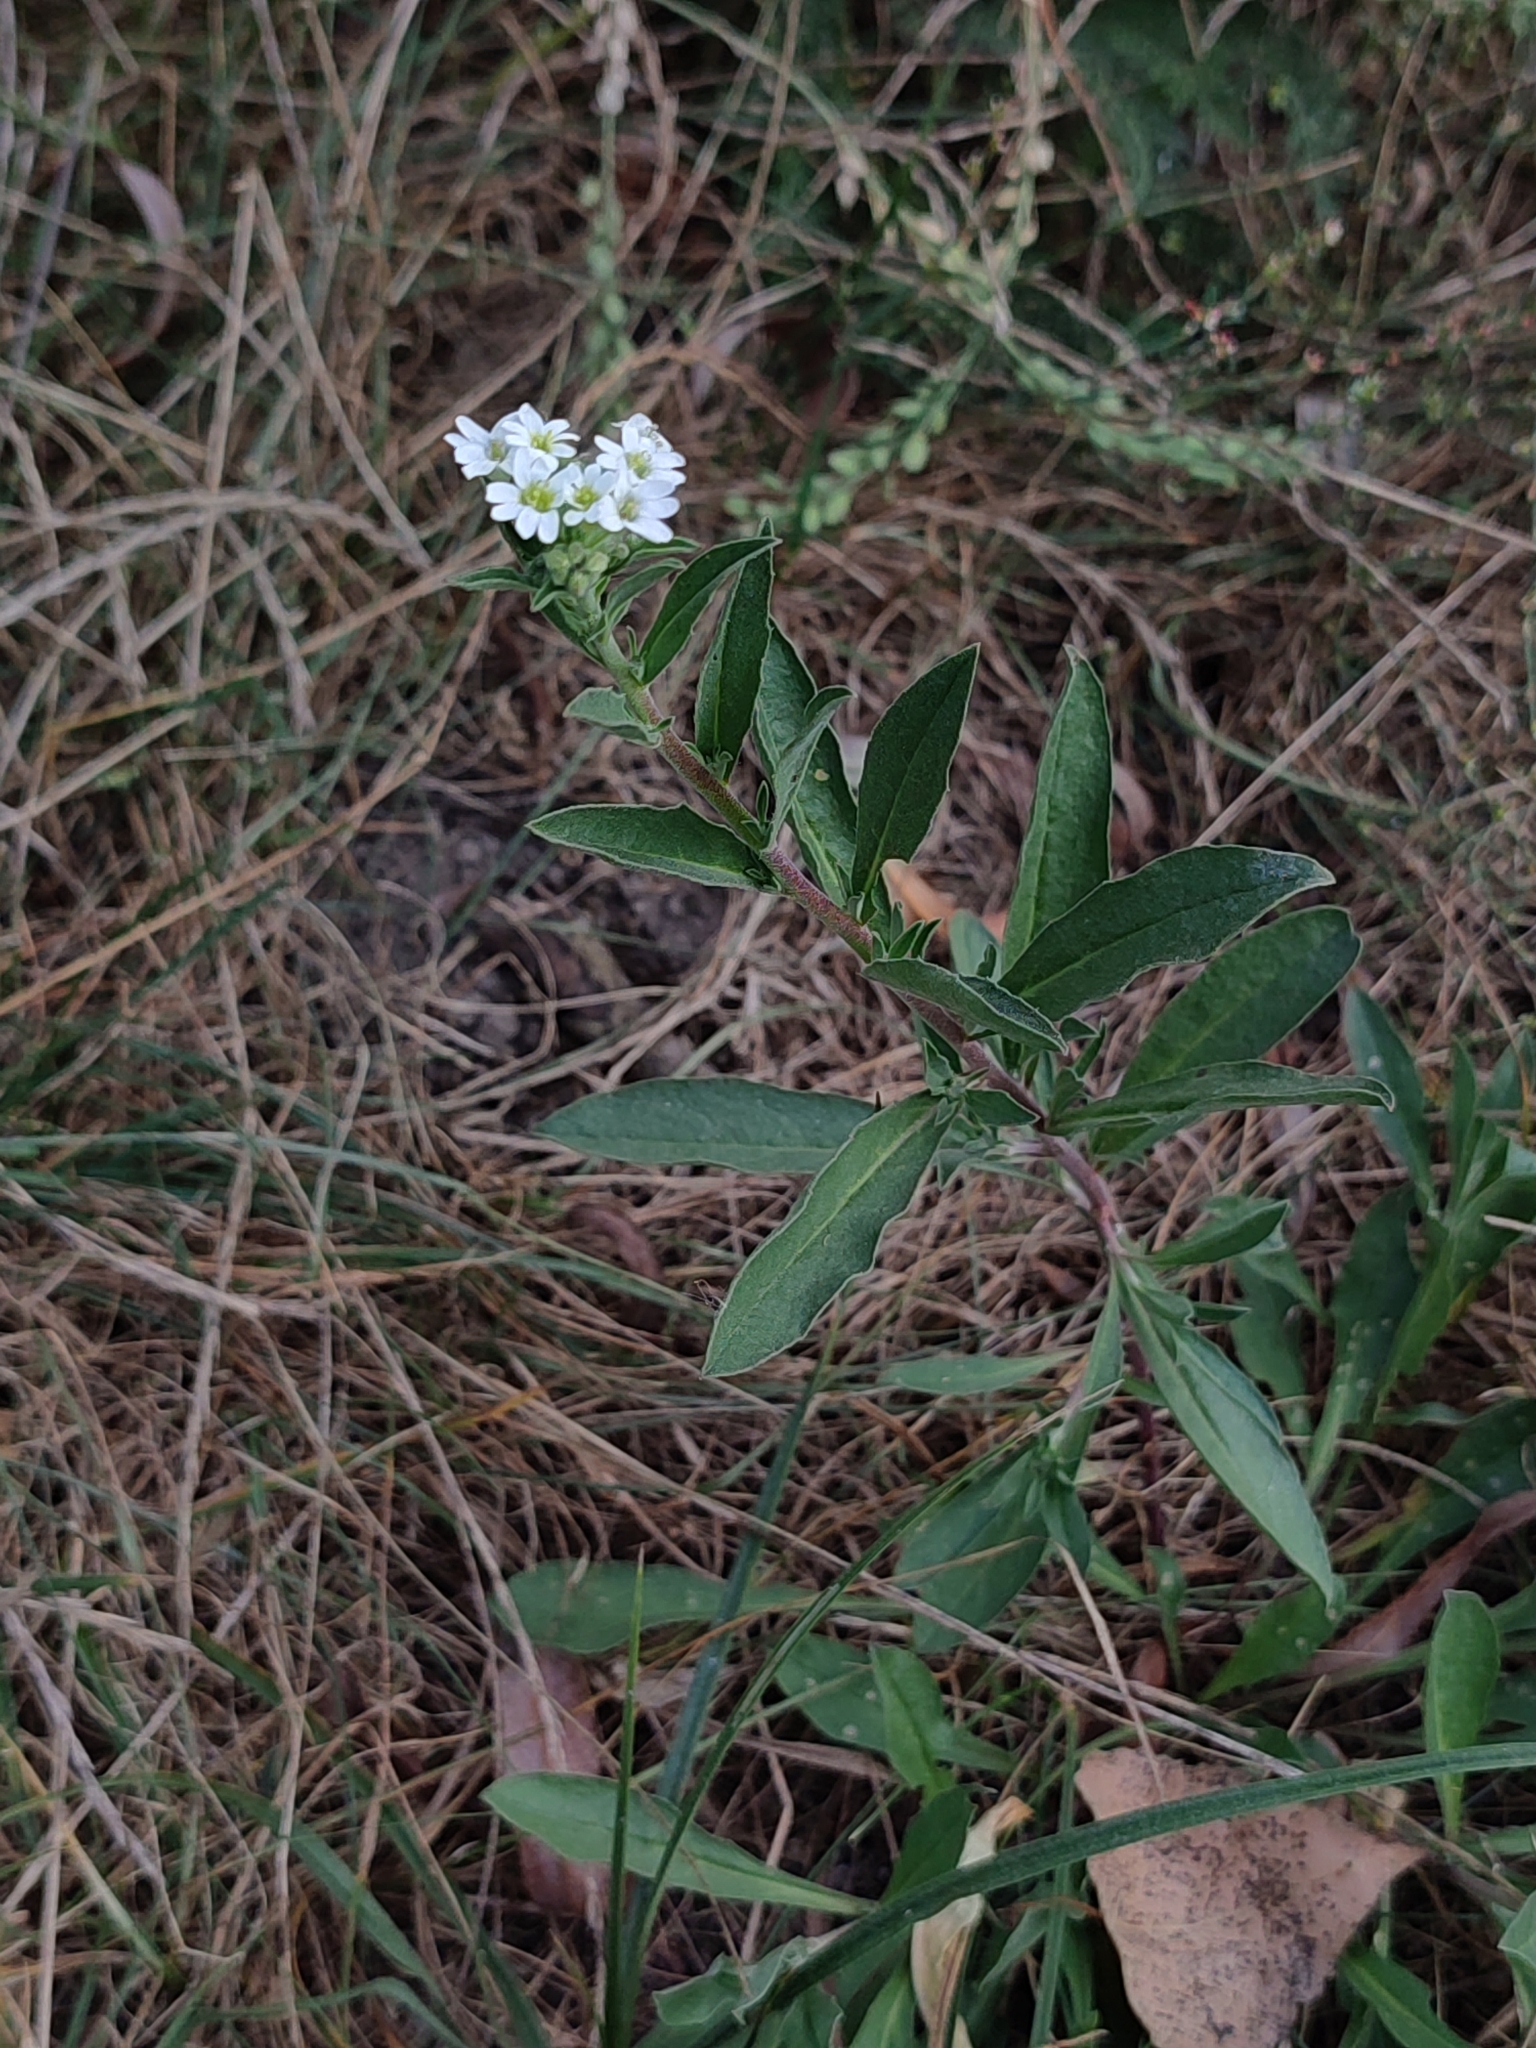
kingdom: Plantae
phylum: Tracheophyta
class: Magnoliopsida
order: Brassicales
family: Brassicaceae
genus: Berteroa
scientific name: Berteroa incana
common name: Hoary alison
